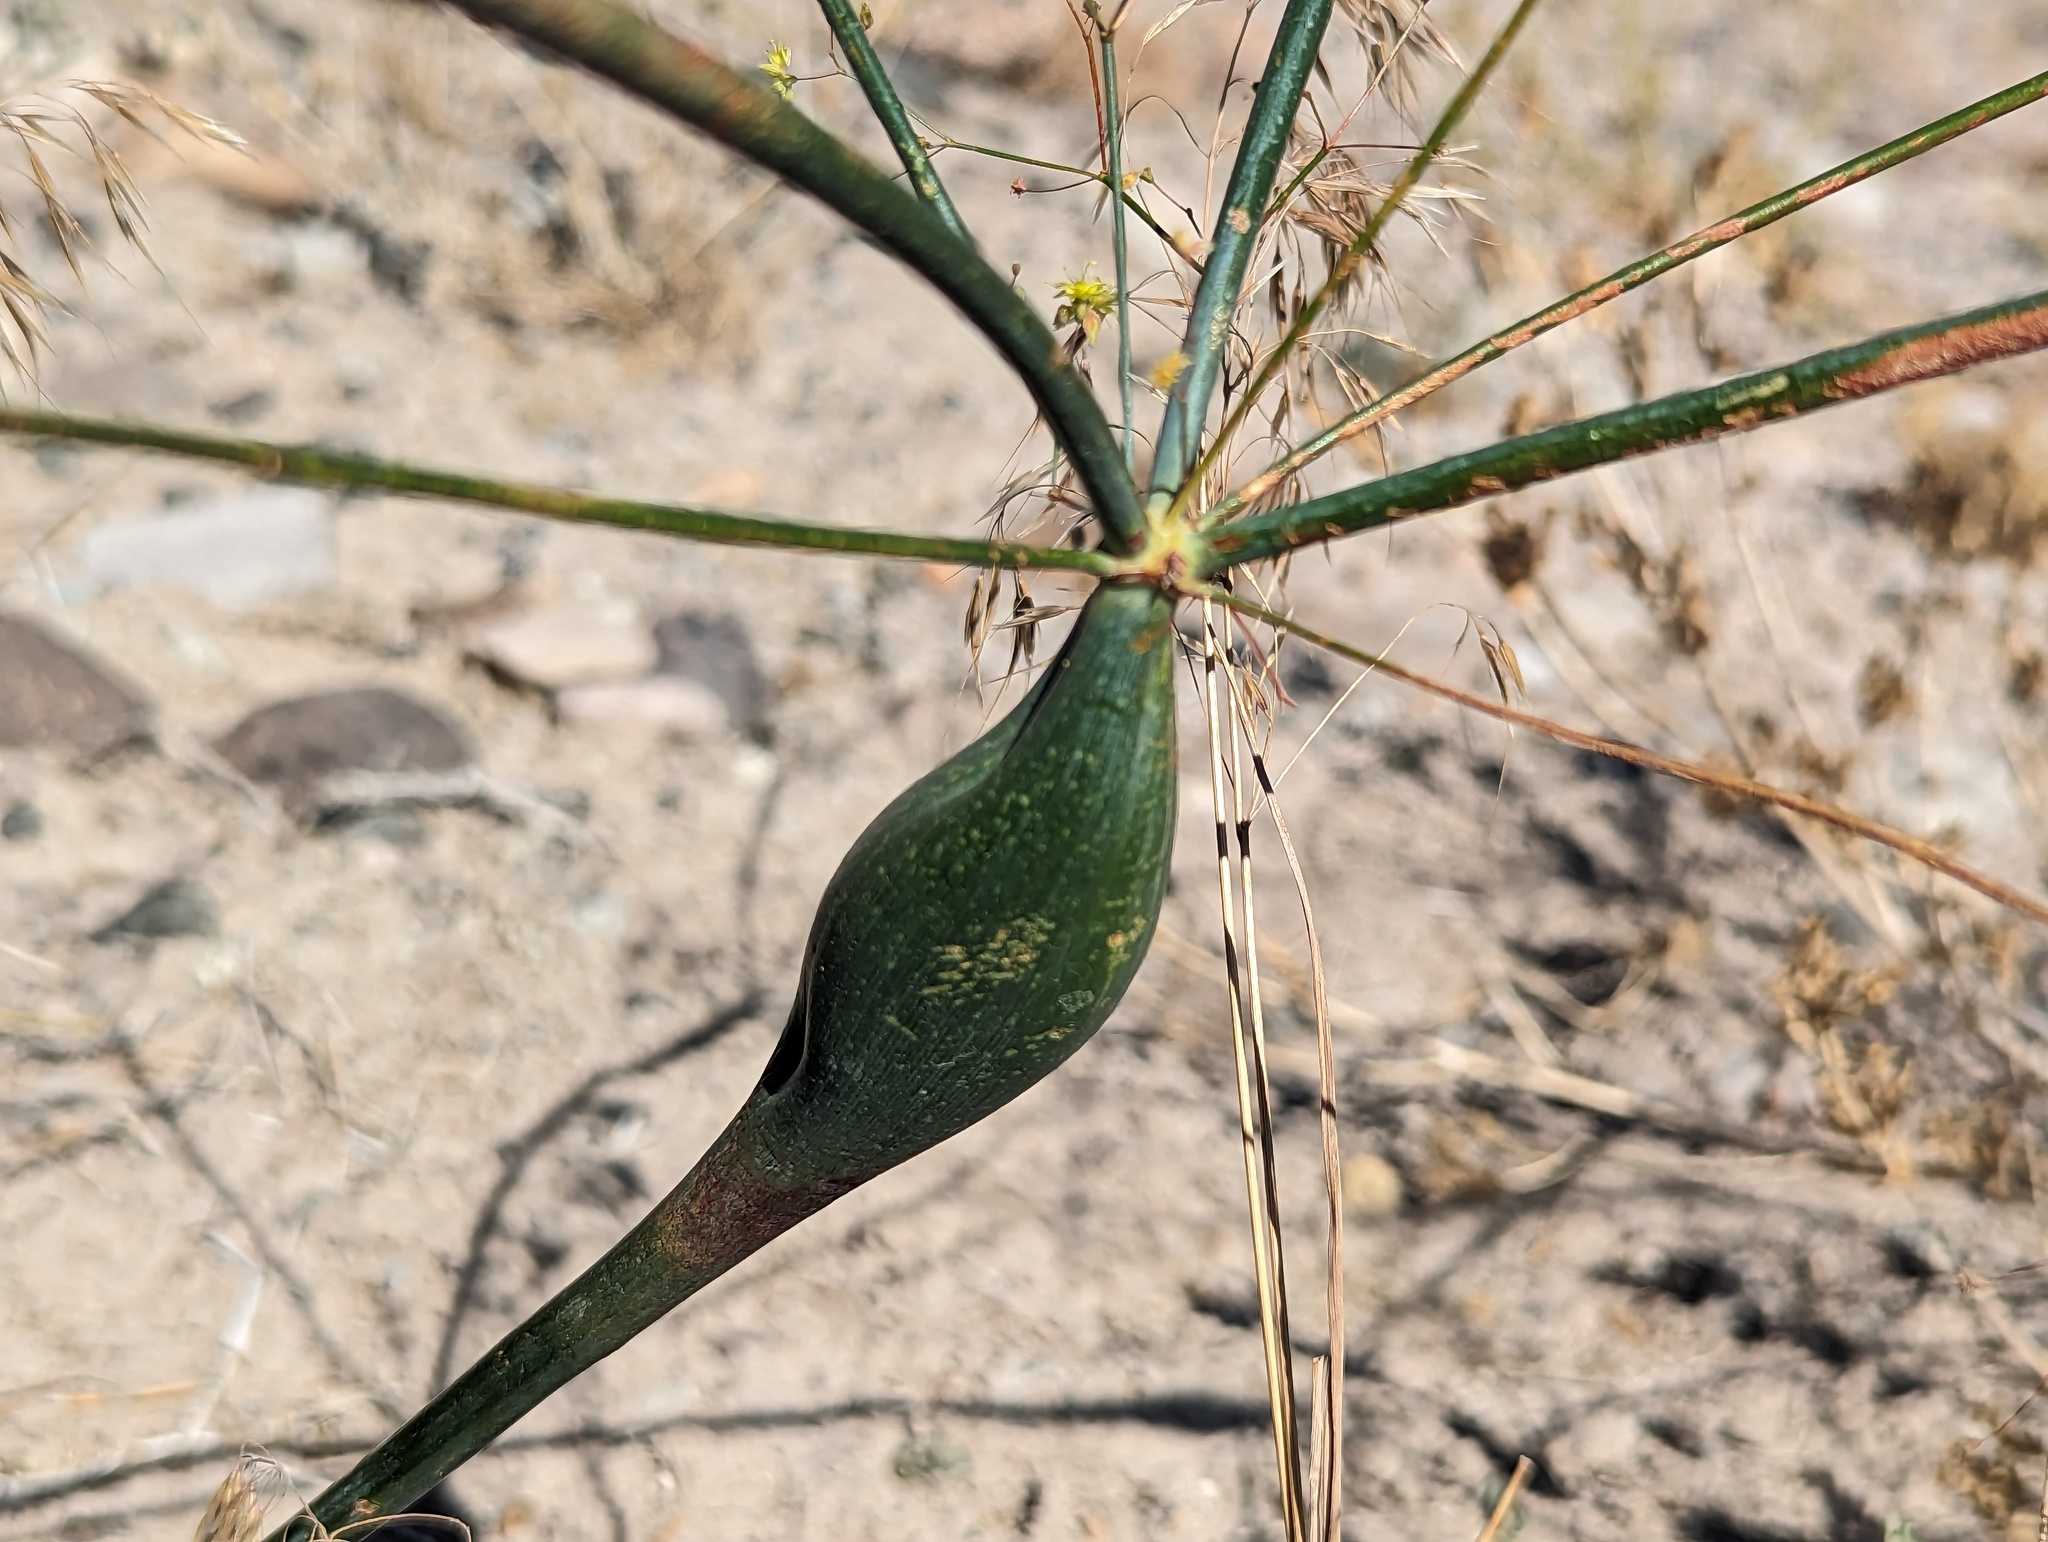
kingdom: Plantae
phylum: Tracheophyta
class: Magnoliopsida
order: Caryophyllales
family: Polygonaceae
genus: Eriogonum
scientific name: Eriogonum inflatum
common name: Desert trumpet
